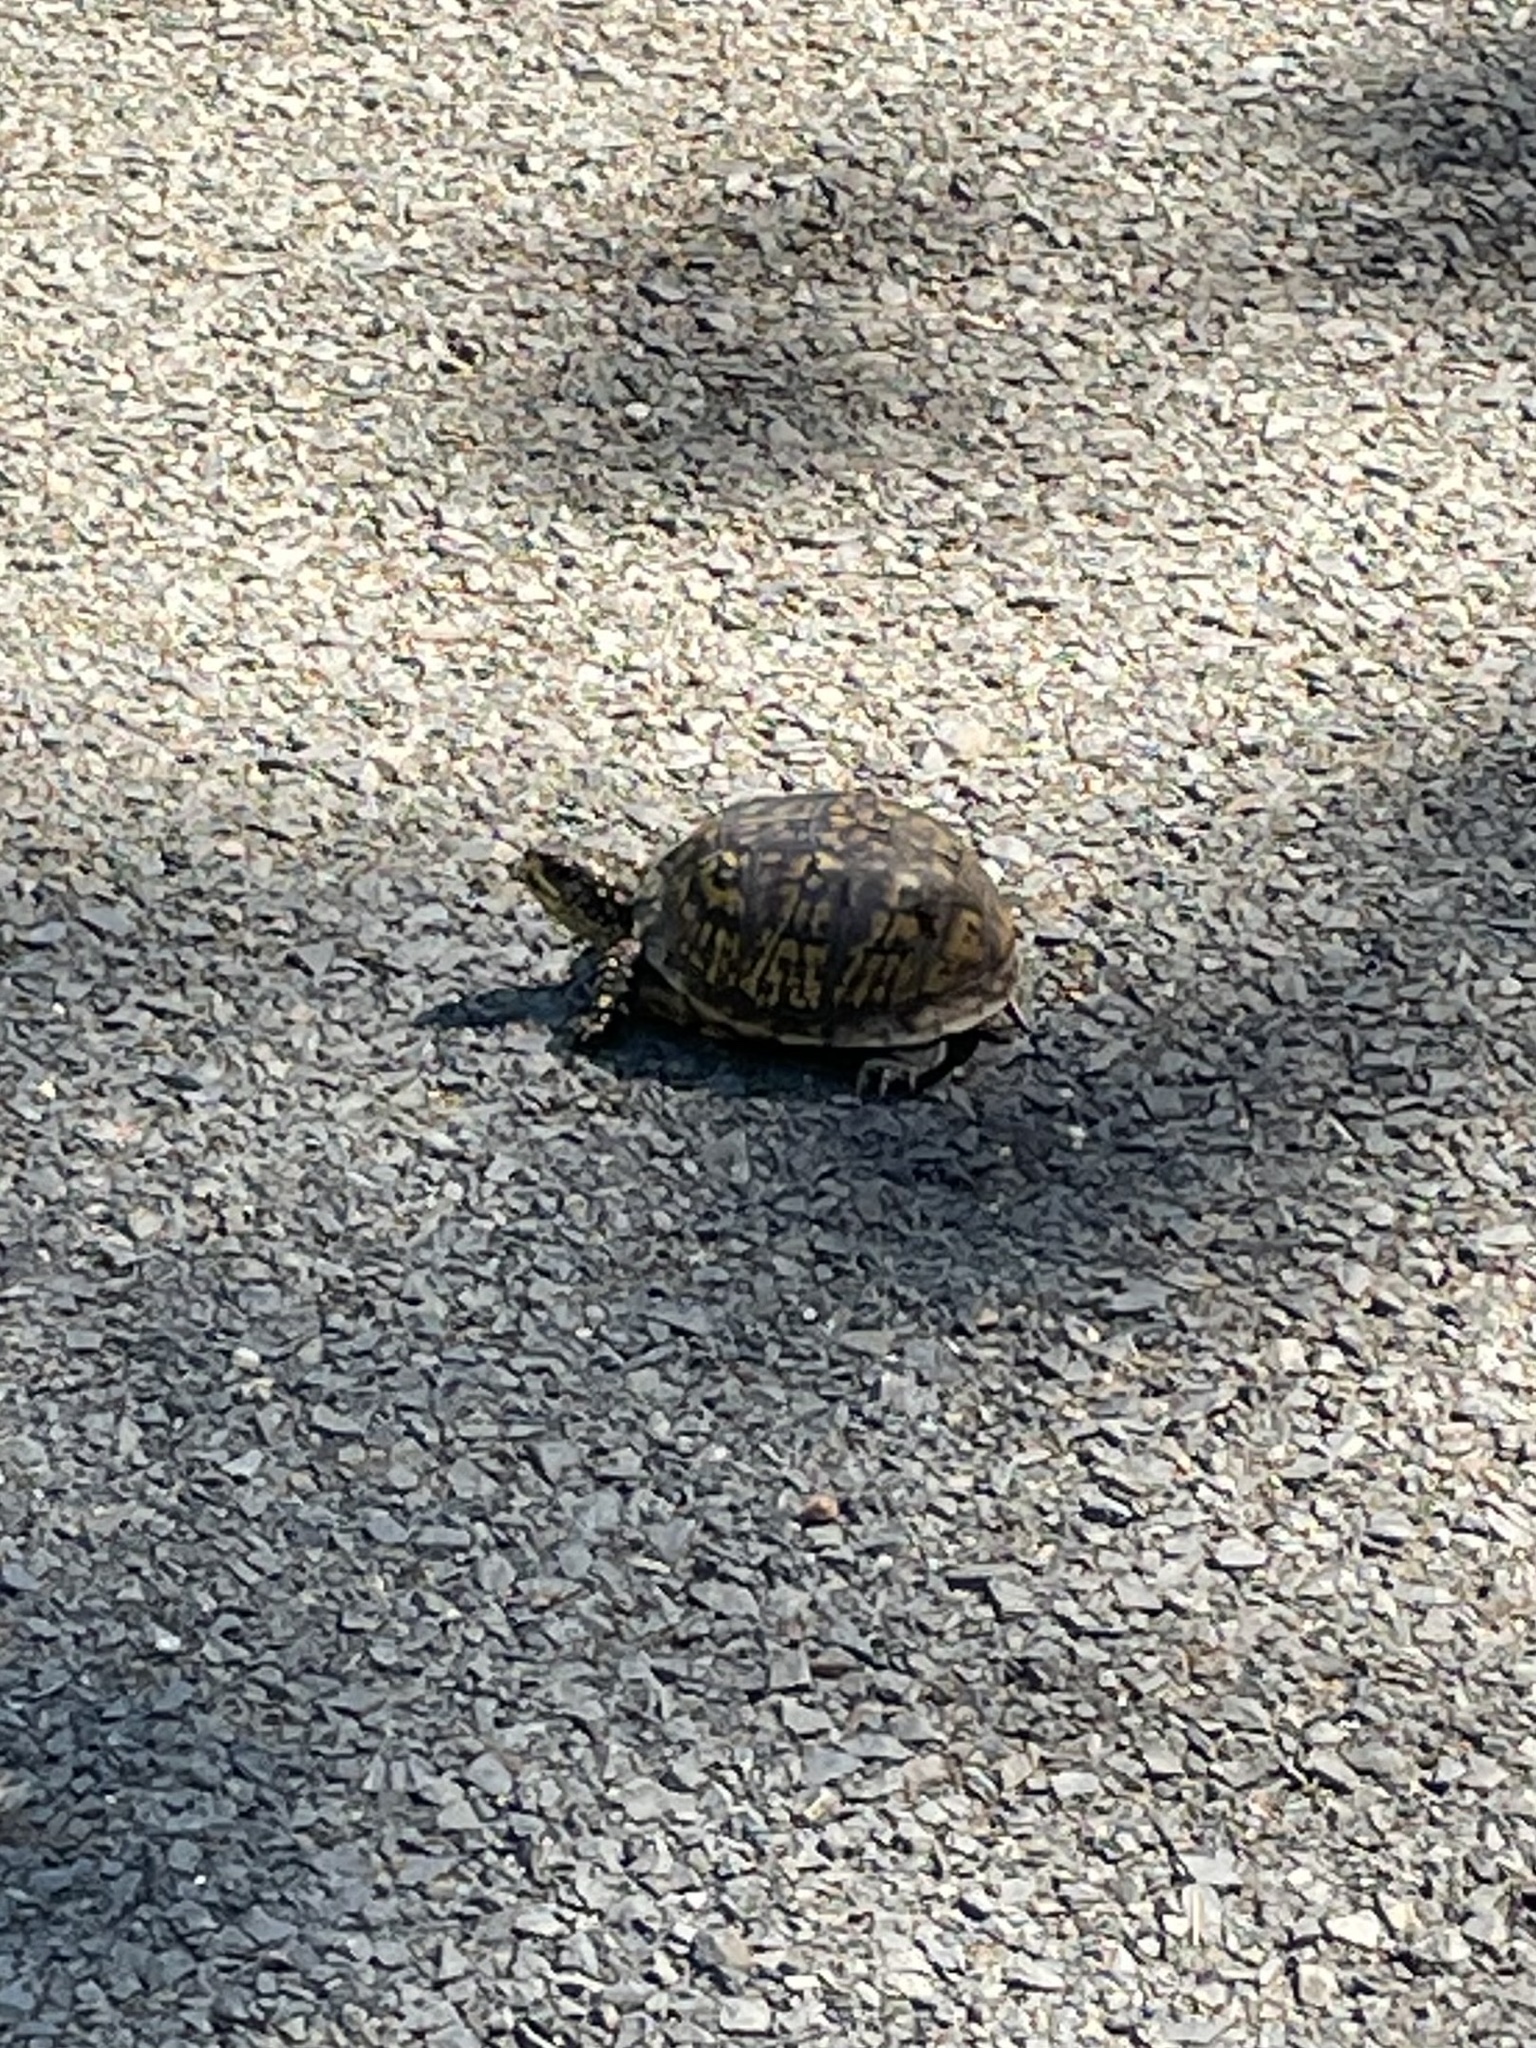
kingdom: Animalia
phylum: Chordata
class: Testudines
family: Emydidae
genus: Terrapene
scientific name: Terrapene carolina
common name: Common box turtle
